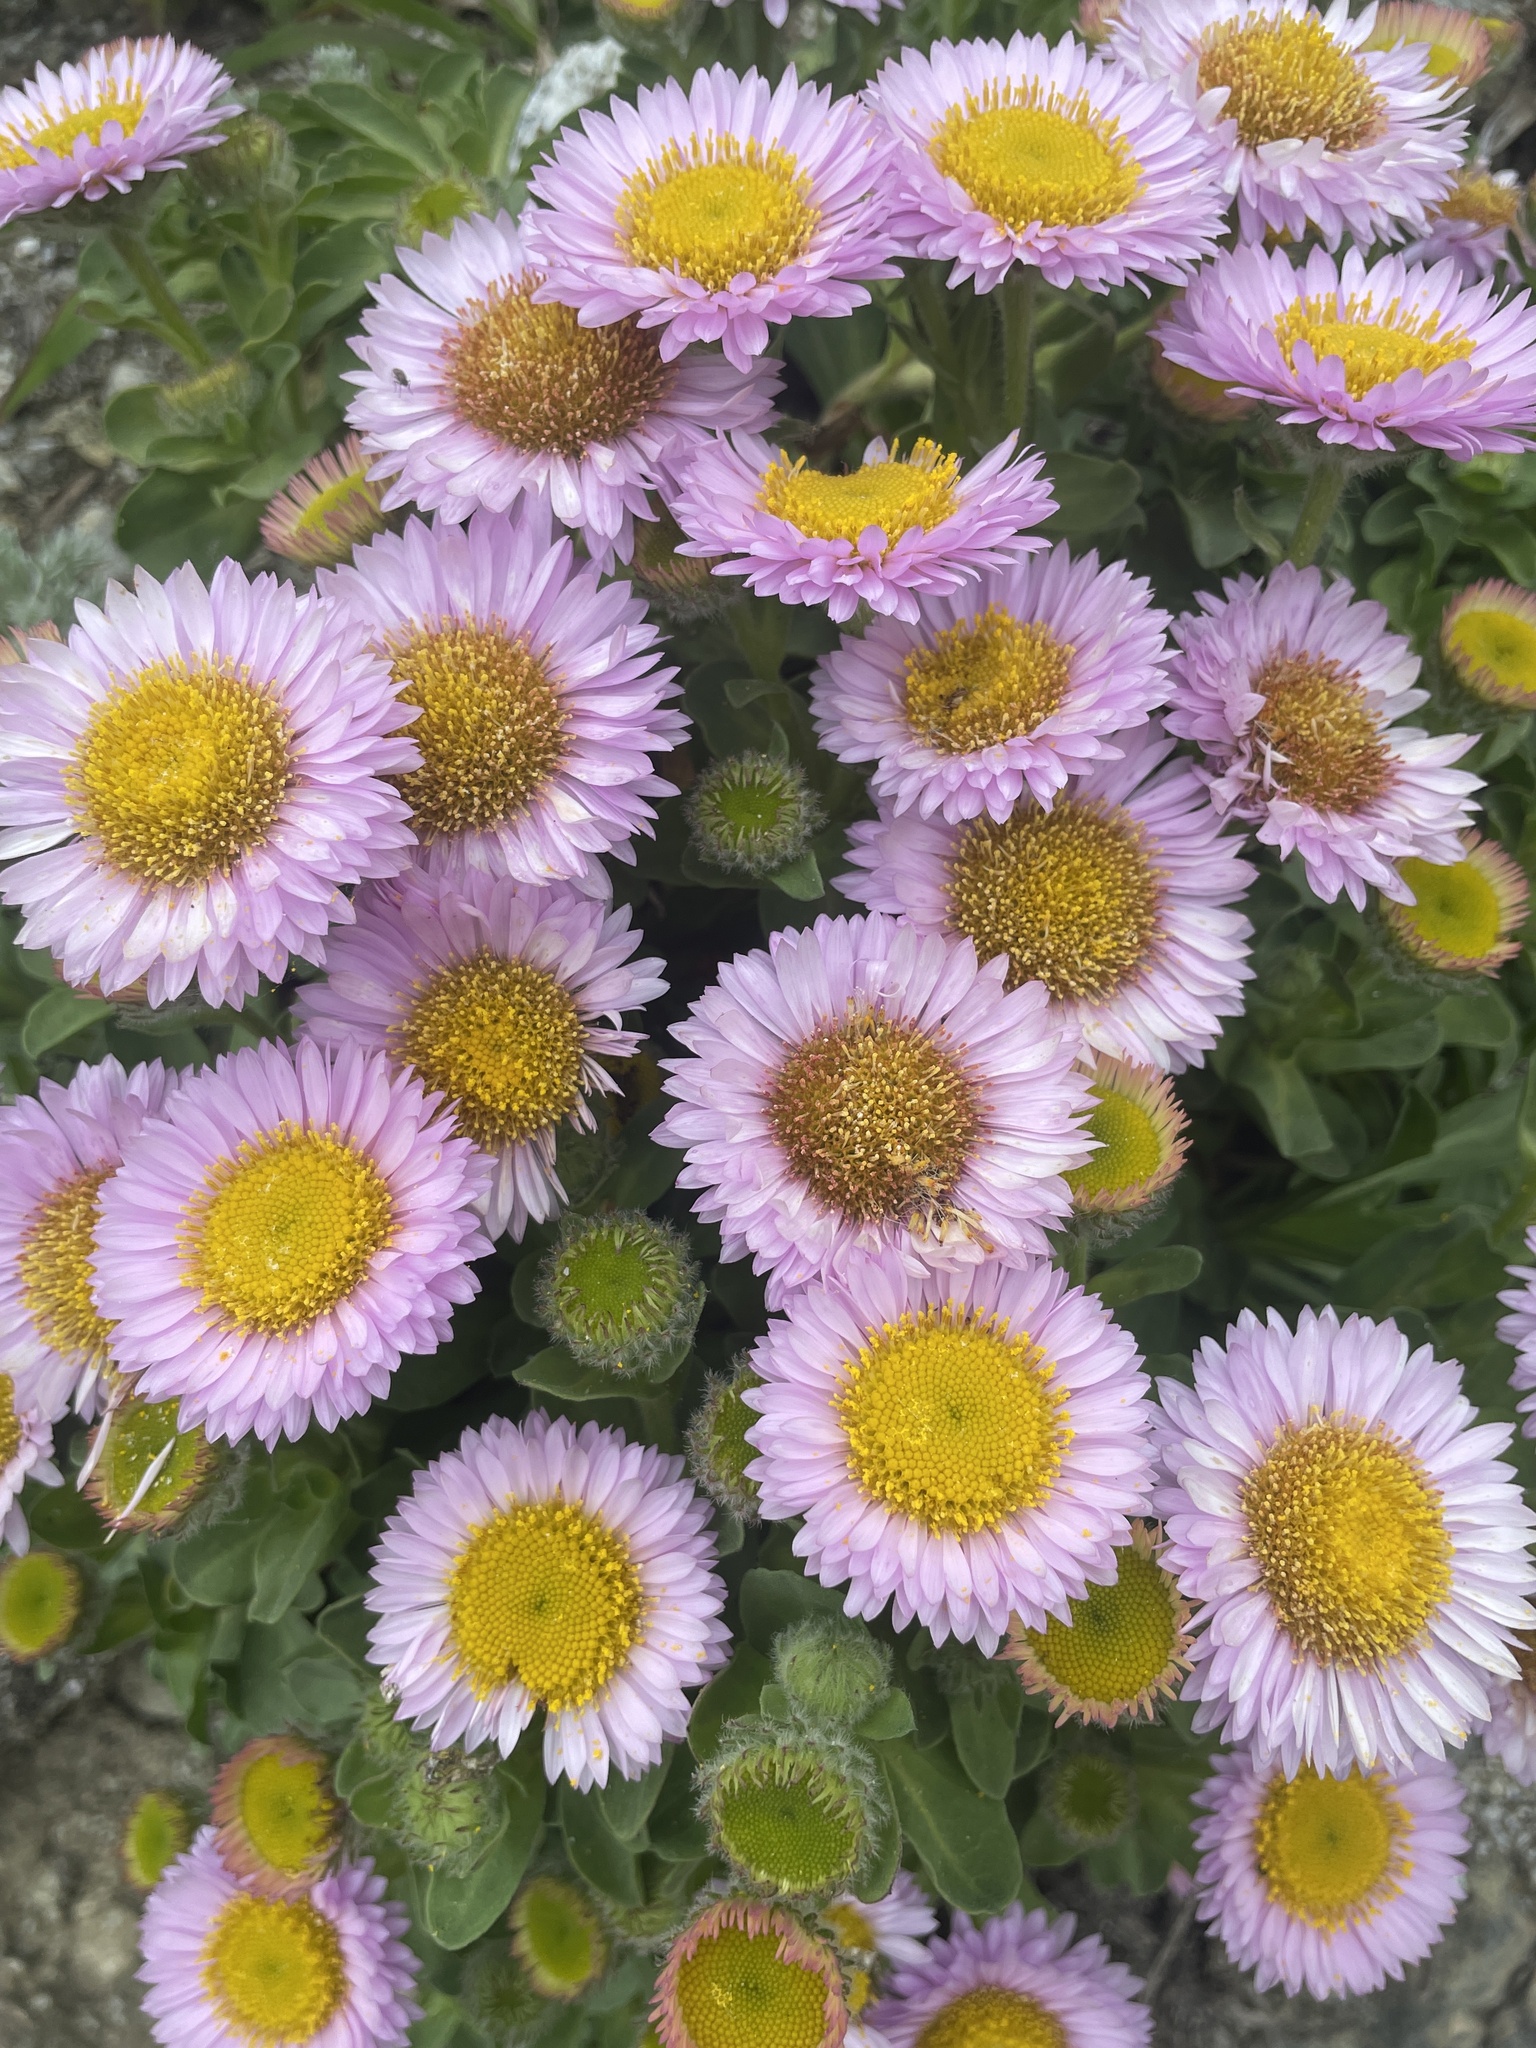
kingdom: Plantae
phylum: Tracheophyta
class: Magnoliopsida
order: Asterales
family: Asteraceae
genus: Erigeron
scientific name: Erigeron glaucus
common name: Seaside daisy
